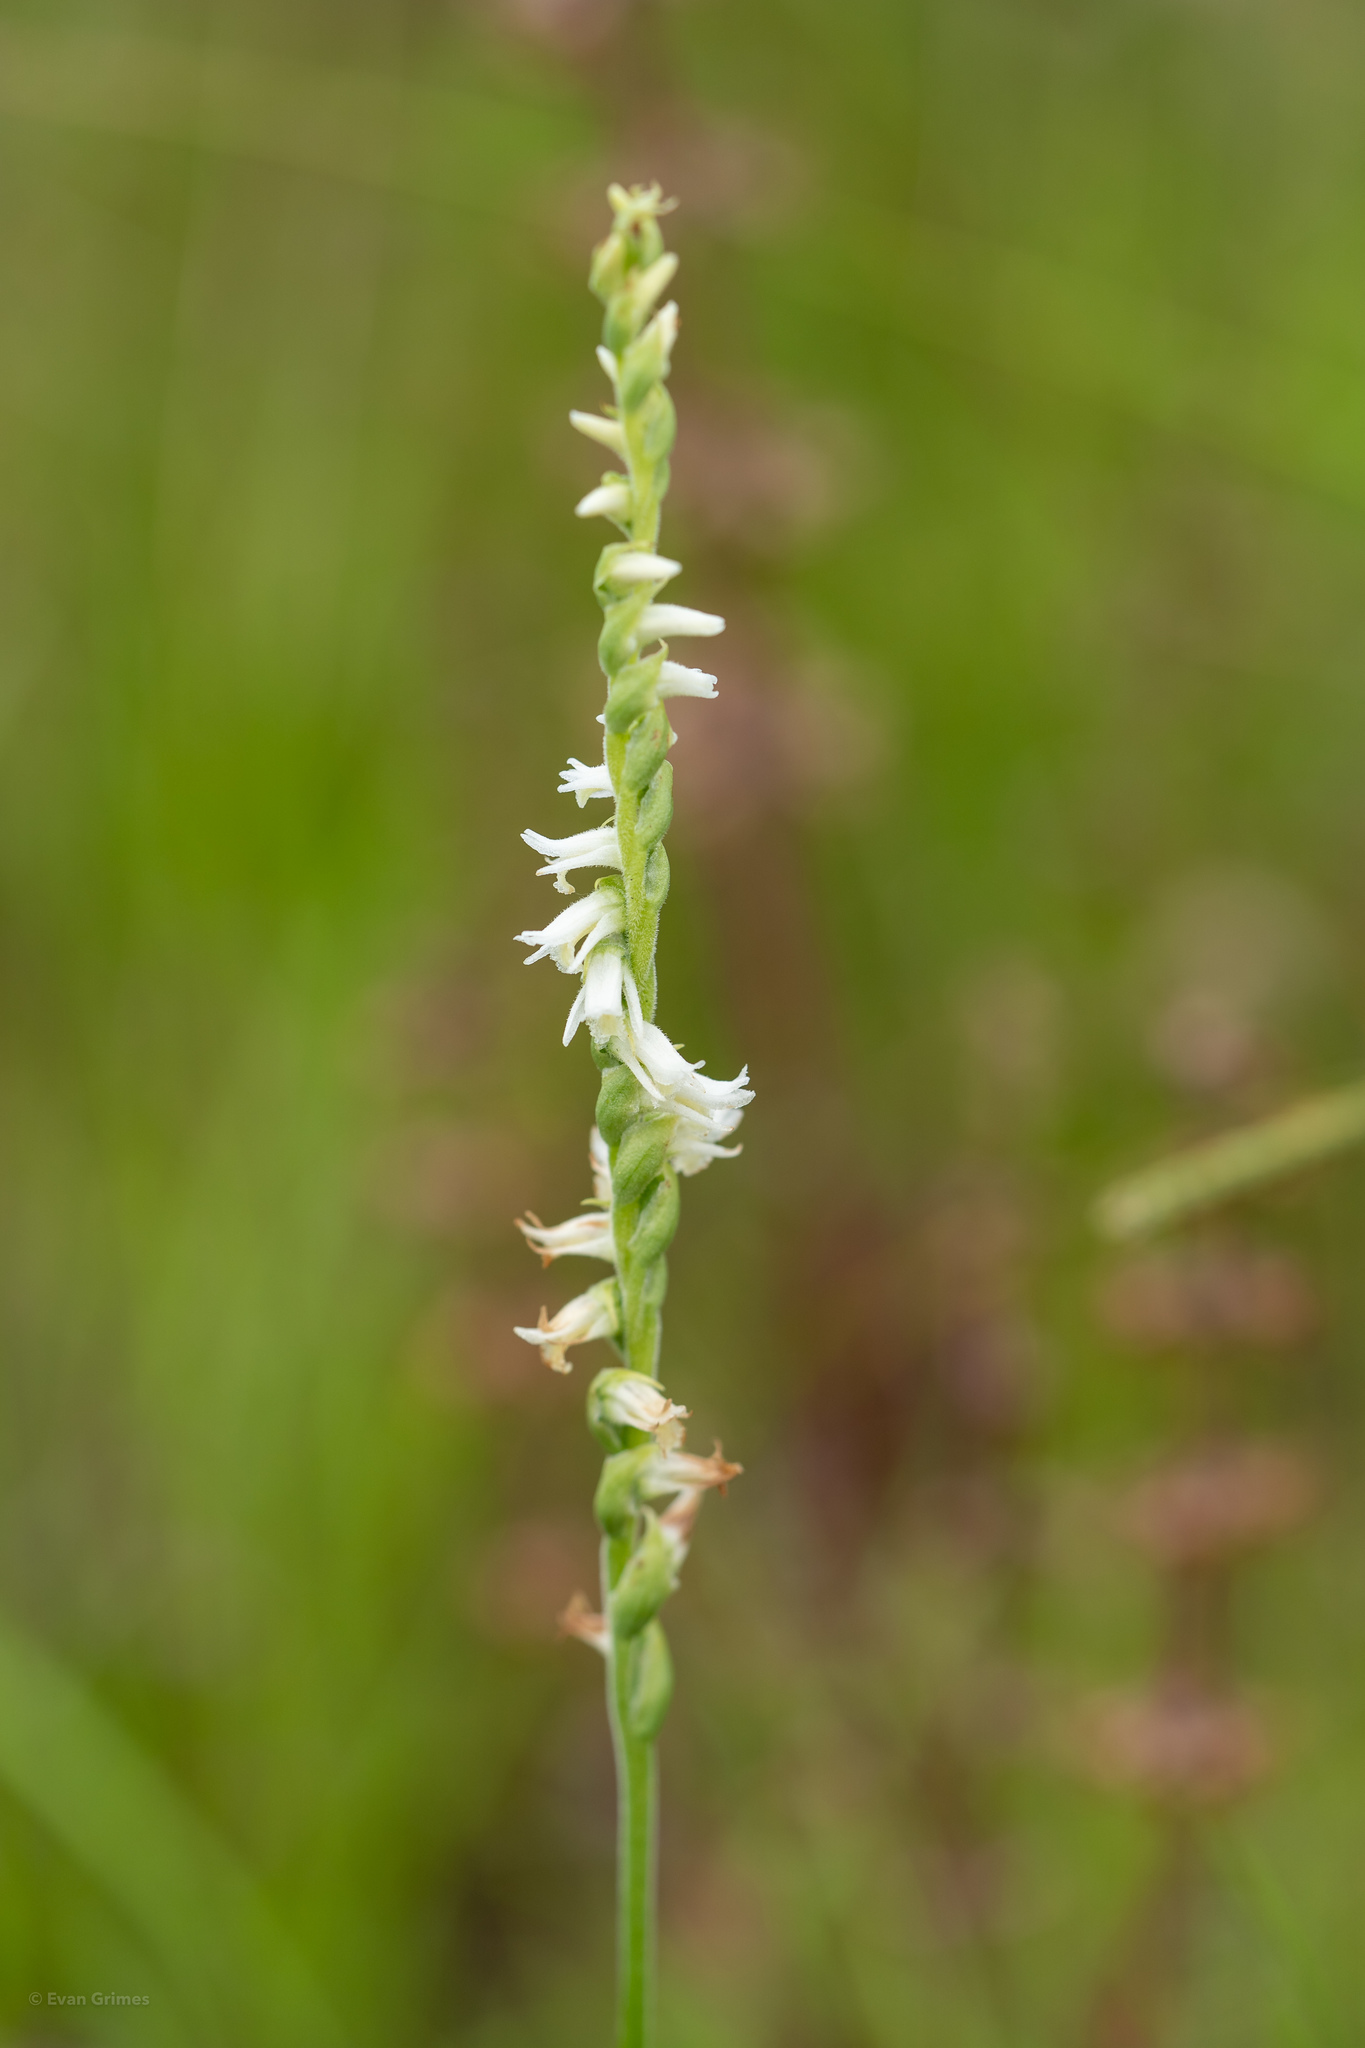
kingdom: Plantae
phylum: Tracheophyta
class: Liliopsida
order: Asparagales
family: Orchidaceae
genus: Spiranthes
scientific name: Spiranthes vernalis
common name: Spring ladies'-tresses
